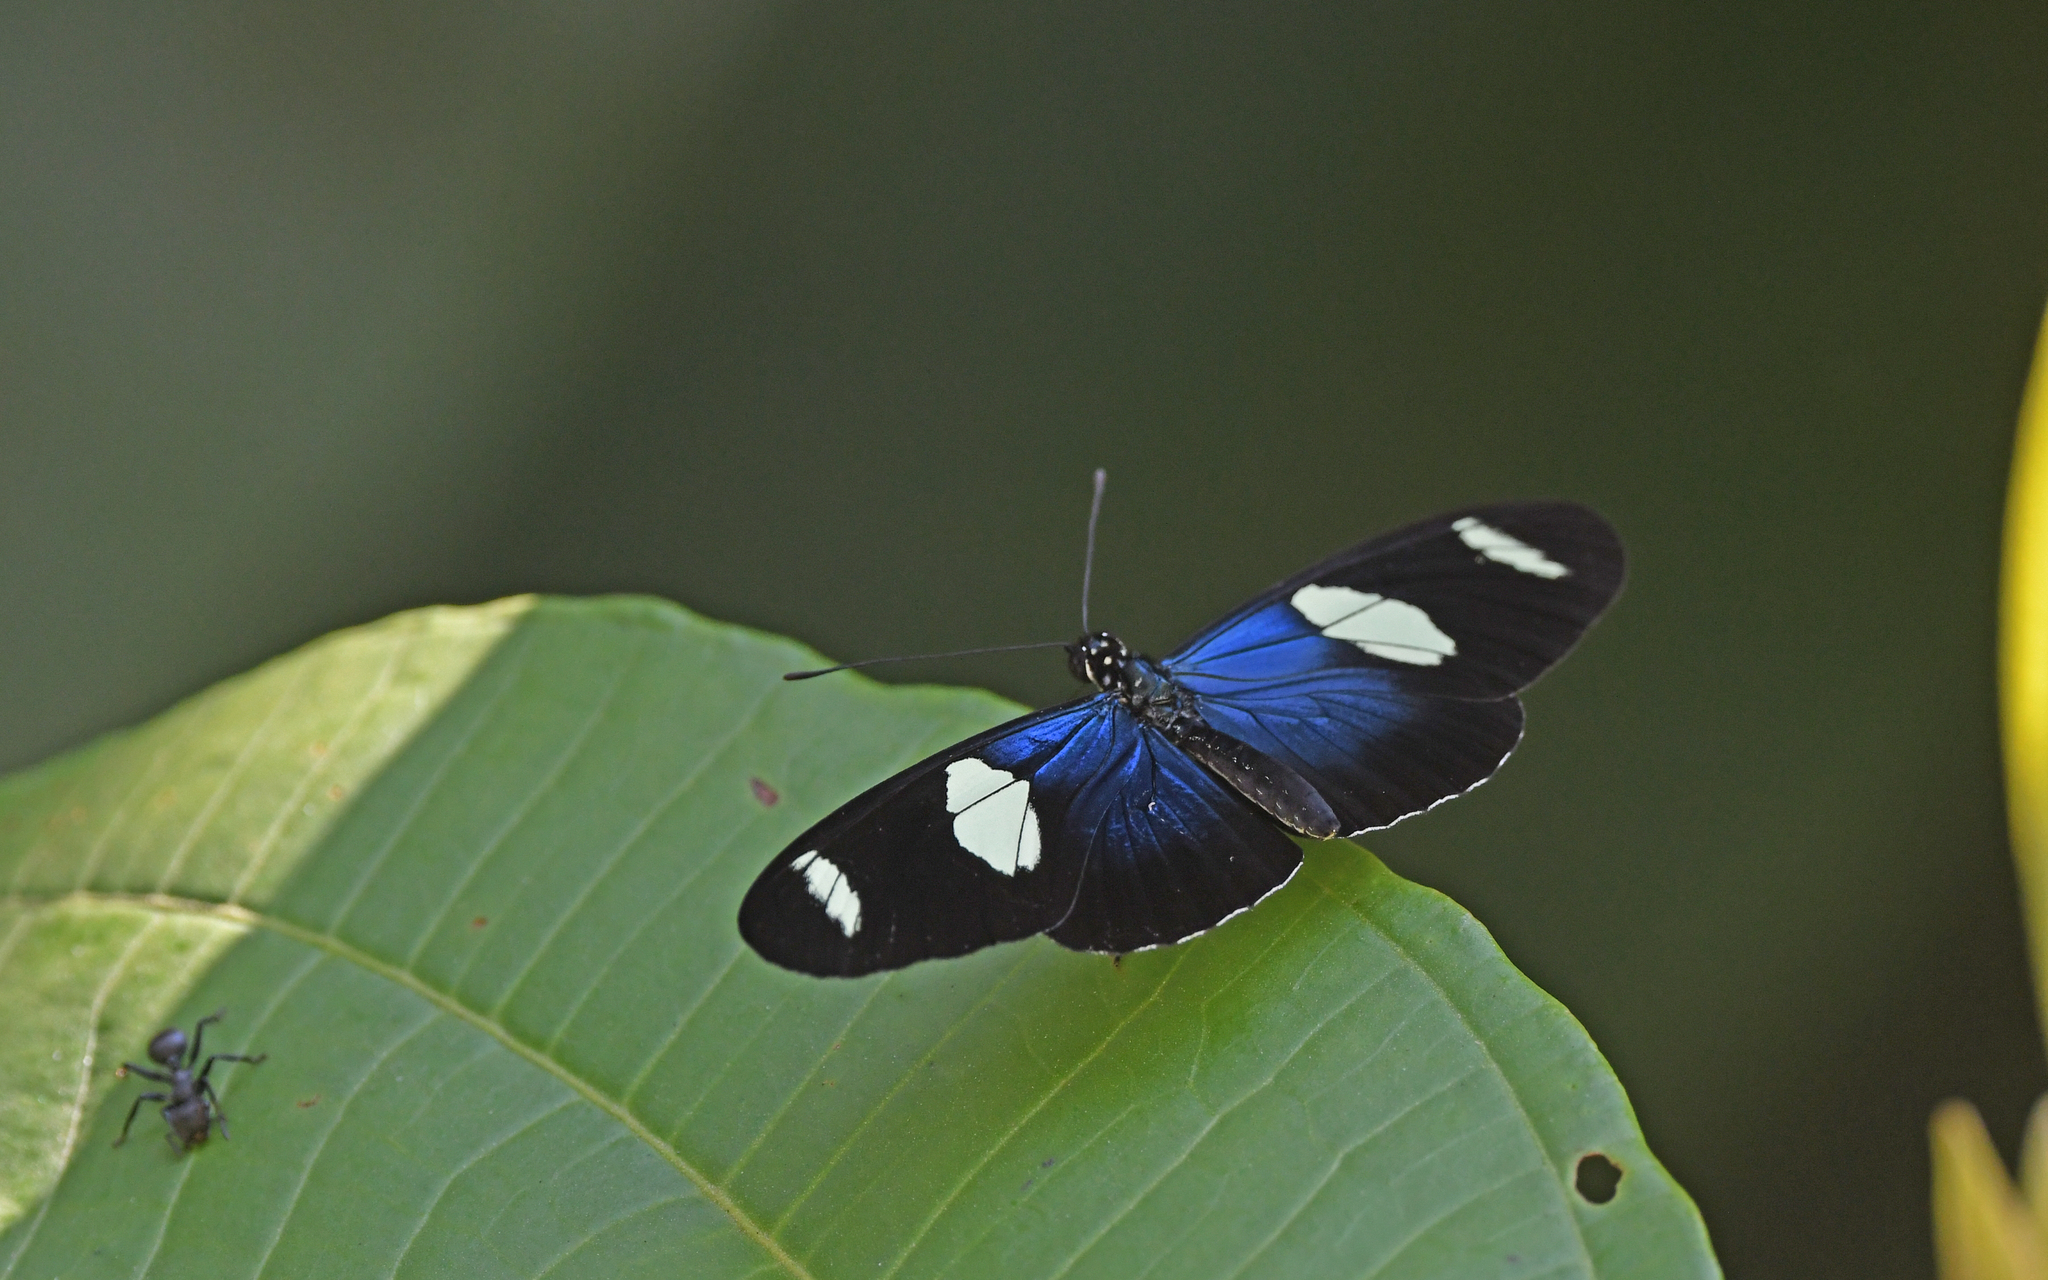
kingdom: Animalia
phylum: Arthropoda
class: Insecta
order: Lepidoptera
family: Nymphalidae
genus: Heliconius
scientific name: Heliconius sara
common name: Sara longwing
